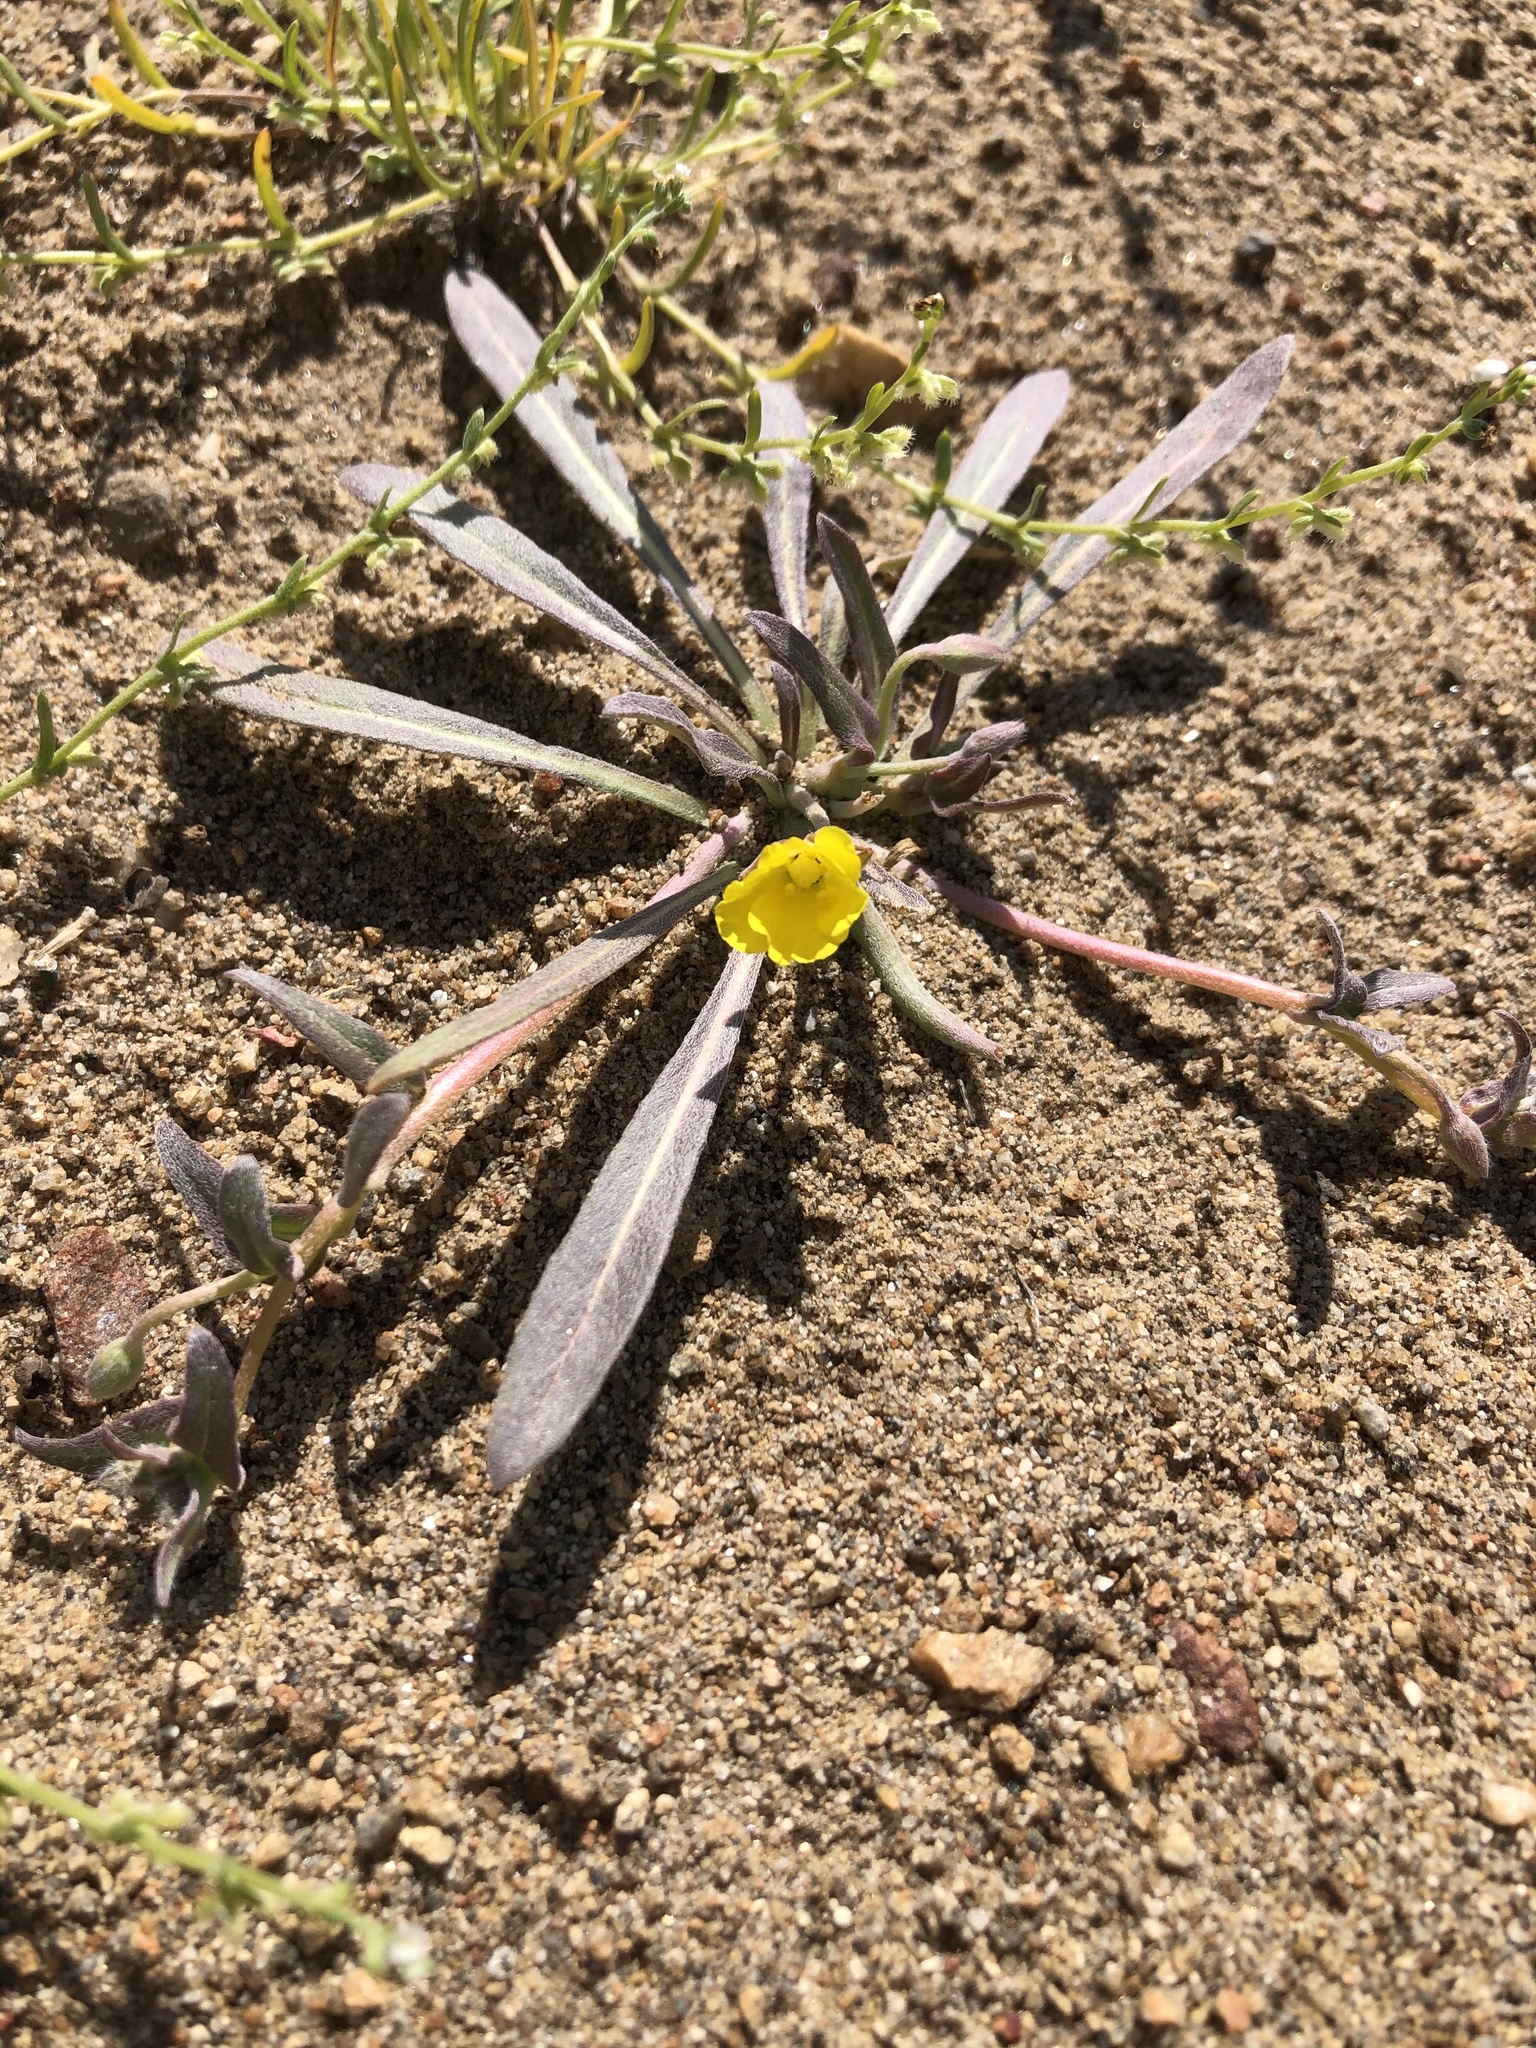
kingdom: Plantae
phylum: Tracheophyta
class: Magnoliopsida
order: Myrtales
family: Onagraceae
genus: Camissoniopsis
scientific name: Camissoniopsis pallida
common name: Paleyellow suncup
